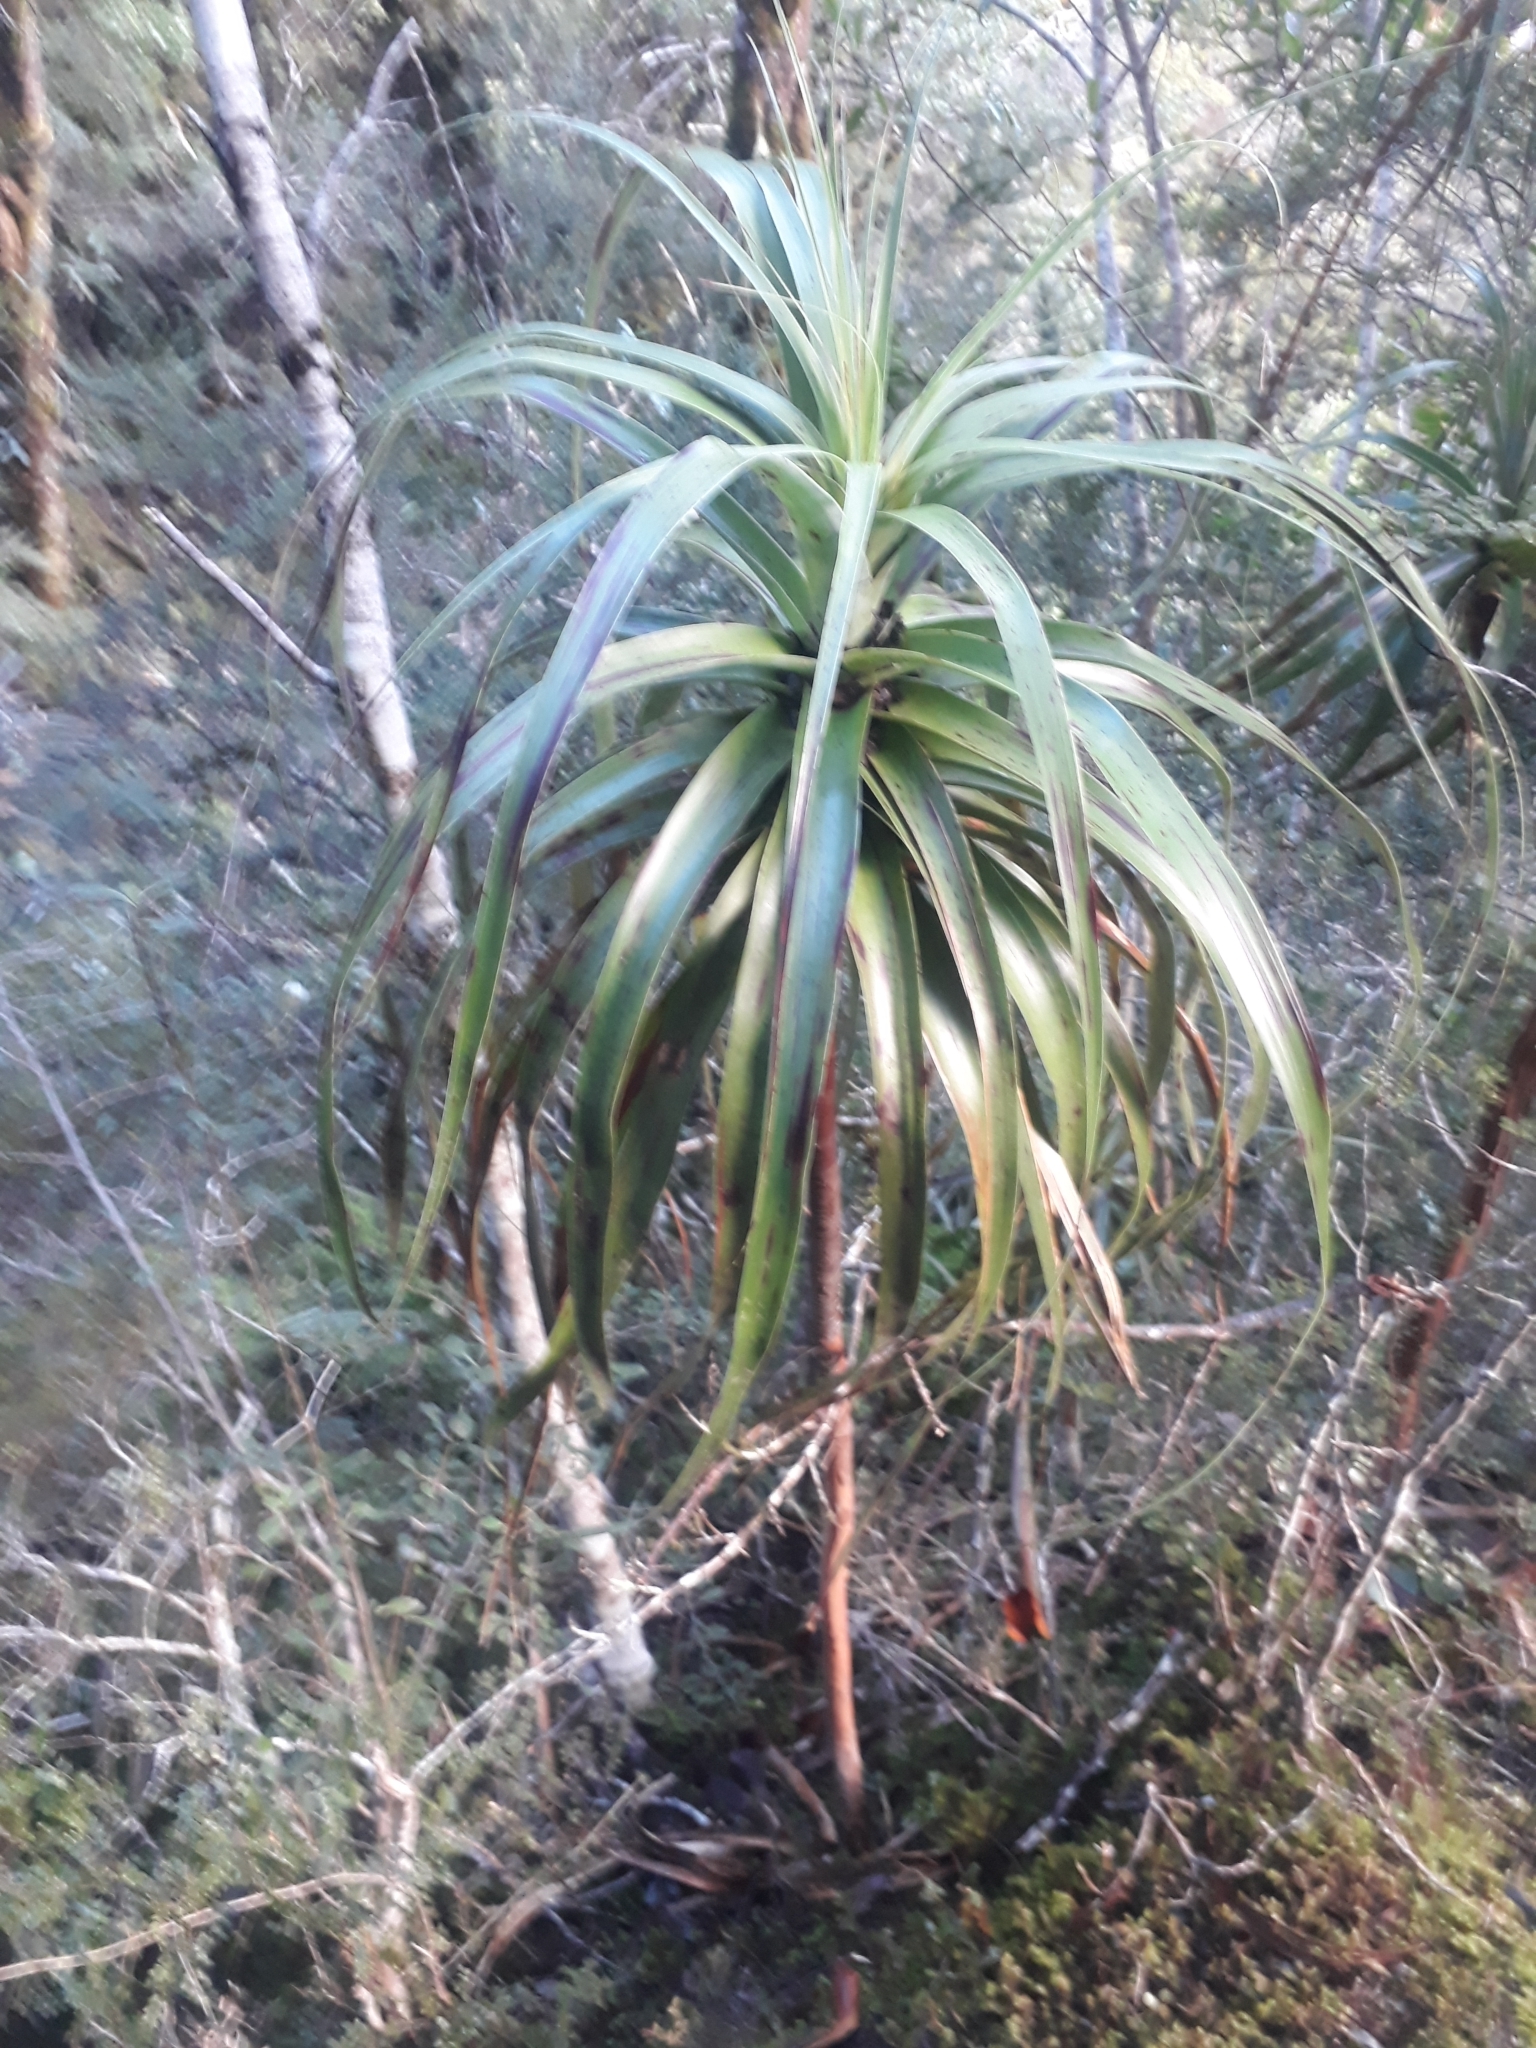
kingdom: Plantae
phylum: Tracheophyta
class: Magnoliopsida
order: Ericales
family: Ericaceae
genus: Dracophyllum
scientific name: Dracophyllum traversii
